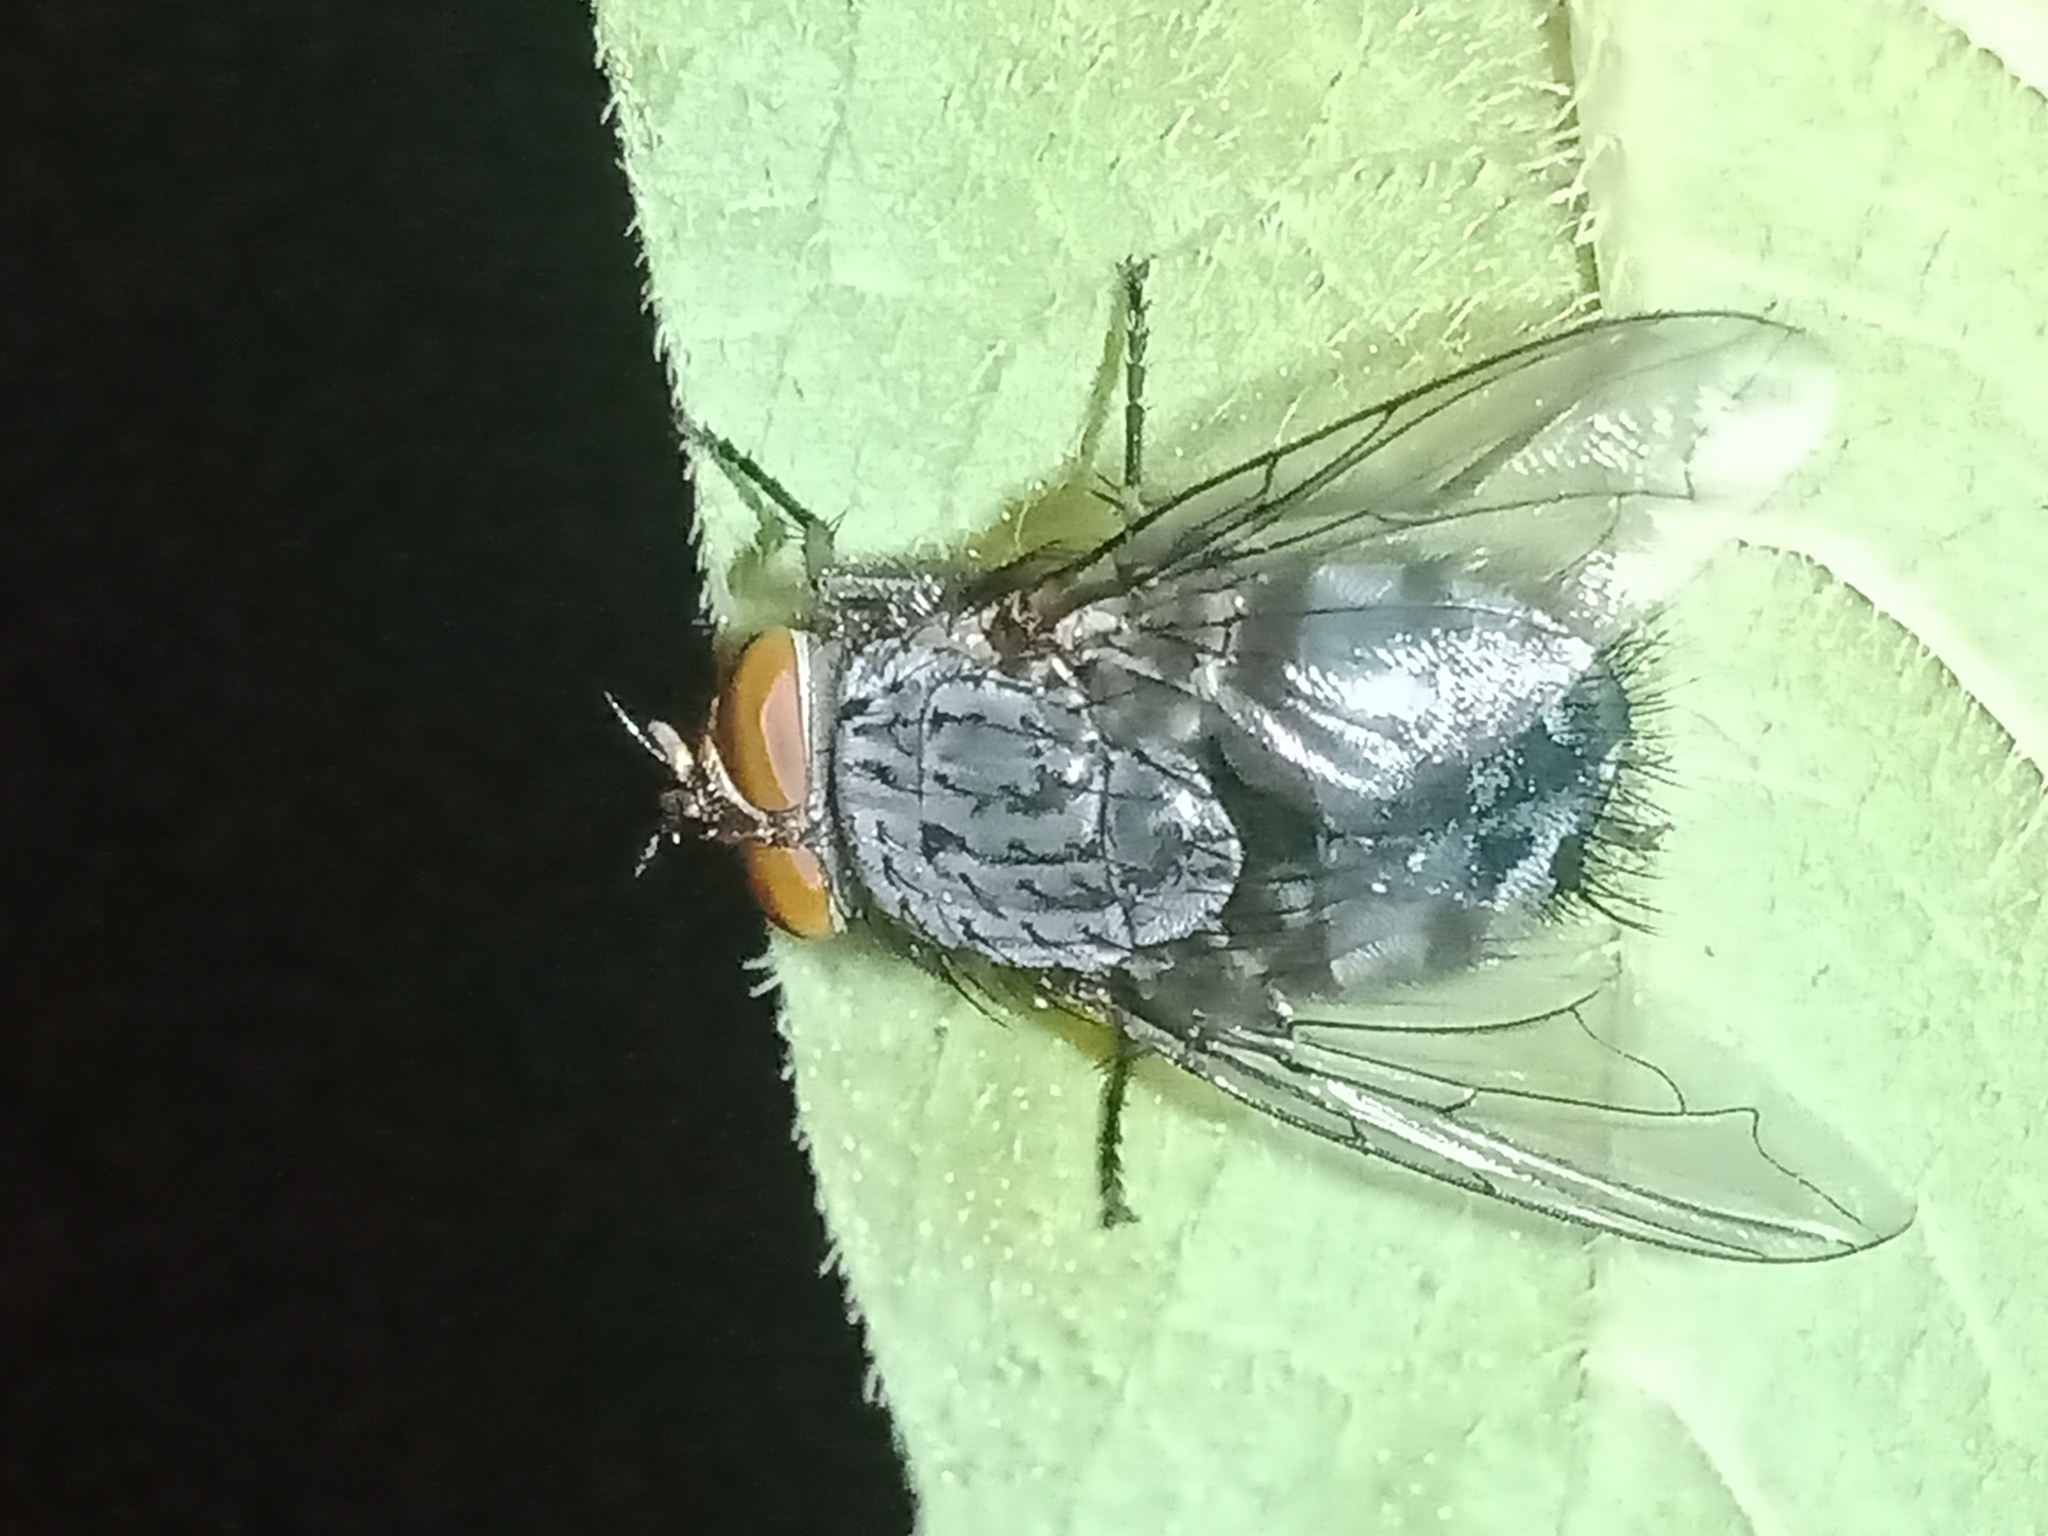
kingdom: Animalia
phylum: Arthropoda
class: Insecta
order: Diptera
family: Calliphoridae
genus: Calliphora
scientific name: Calliphora vicina
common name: Common blow flie
